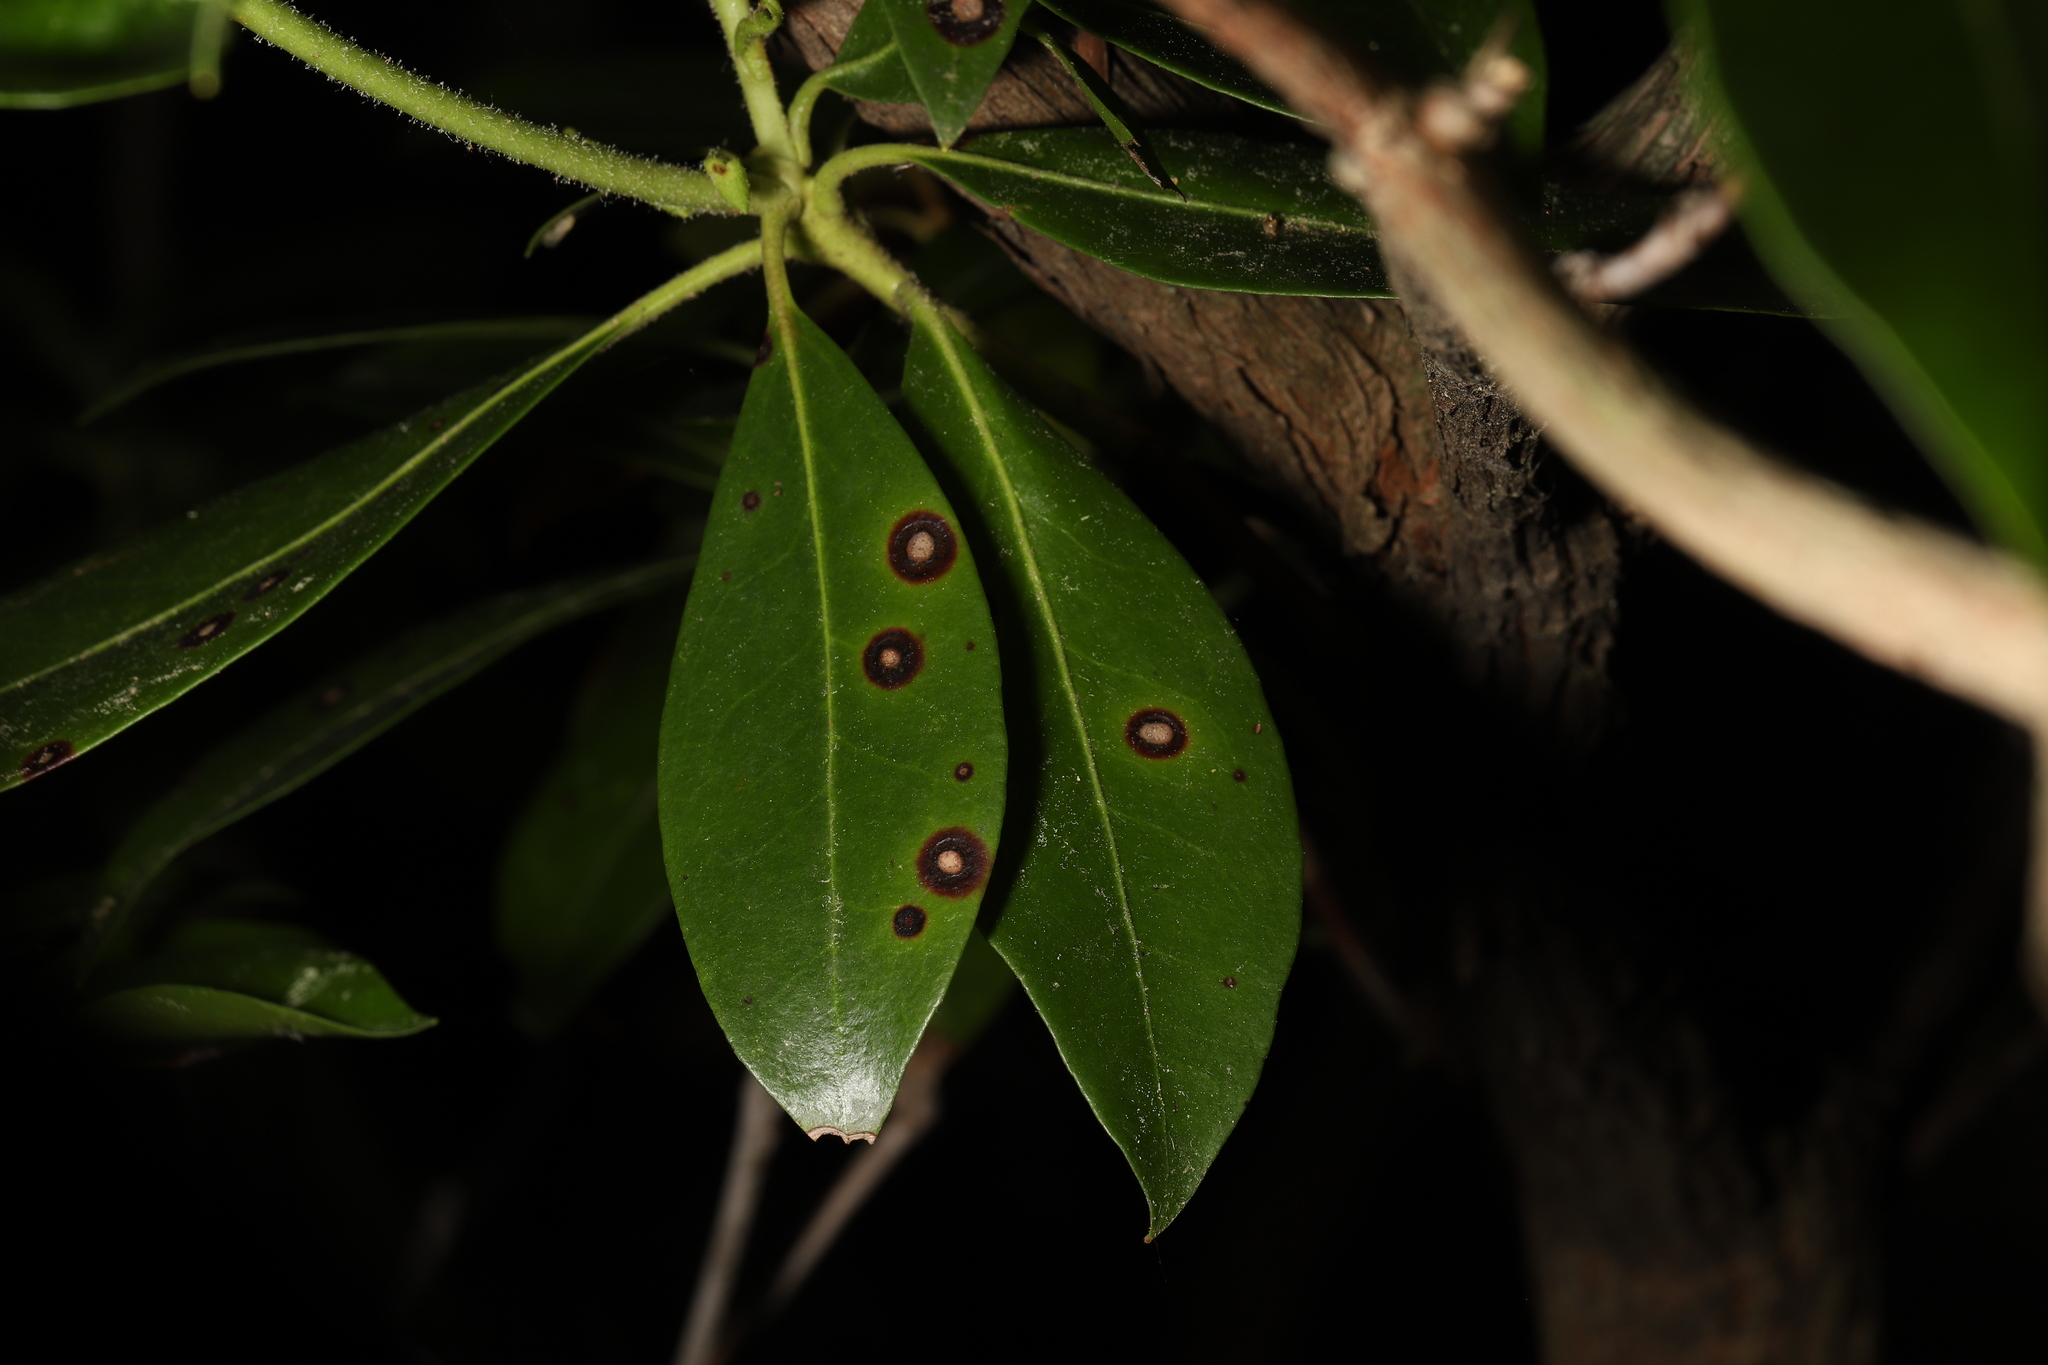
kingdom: Fungi
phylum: Ascomycota
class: Dothideomycetes
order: Mycosphaerellales
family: Mycosphaerellaceae
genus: Mycosphaerella
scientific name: Mycosphaerella colorata
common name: Mountain laurel leaf spot
